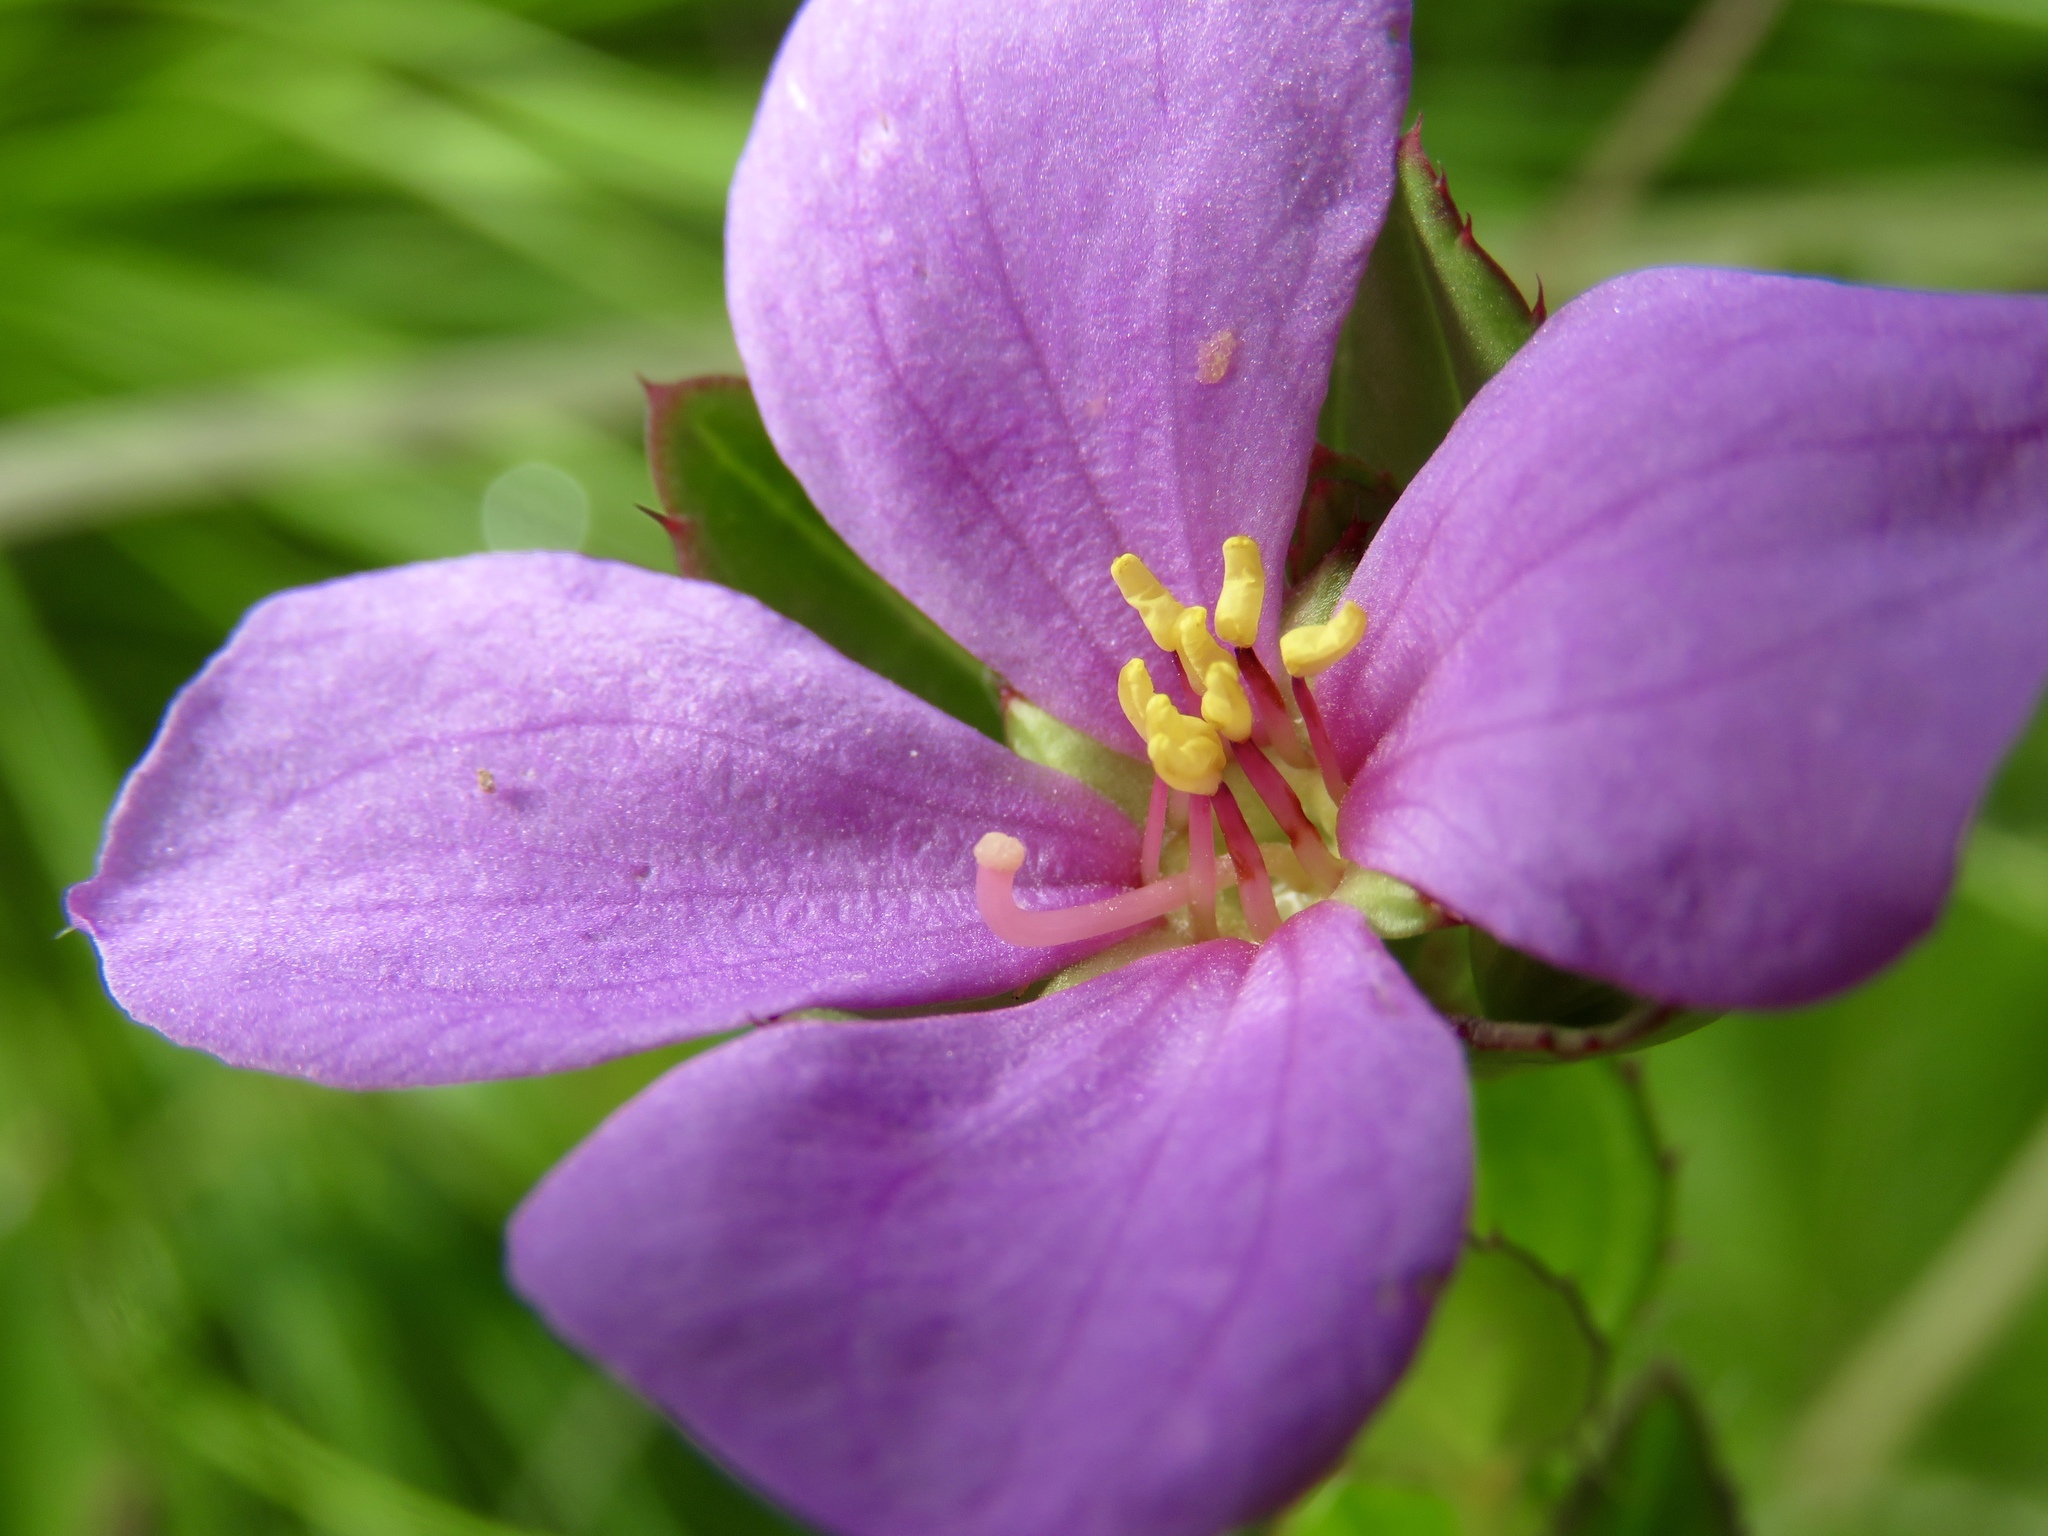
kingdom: Plantae
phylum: Tracheophyta
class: Magnoliopsida
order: Myrtales
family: Melastomataceae
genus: Rhexia
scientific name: Rhexia petiolata
